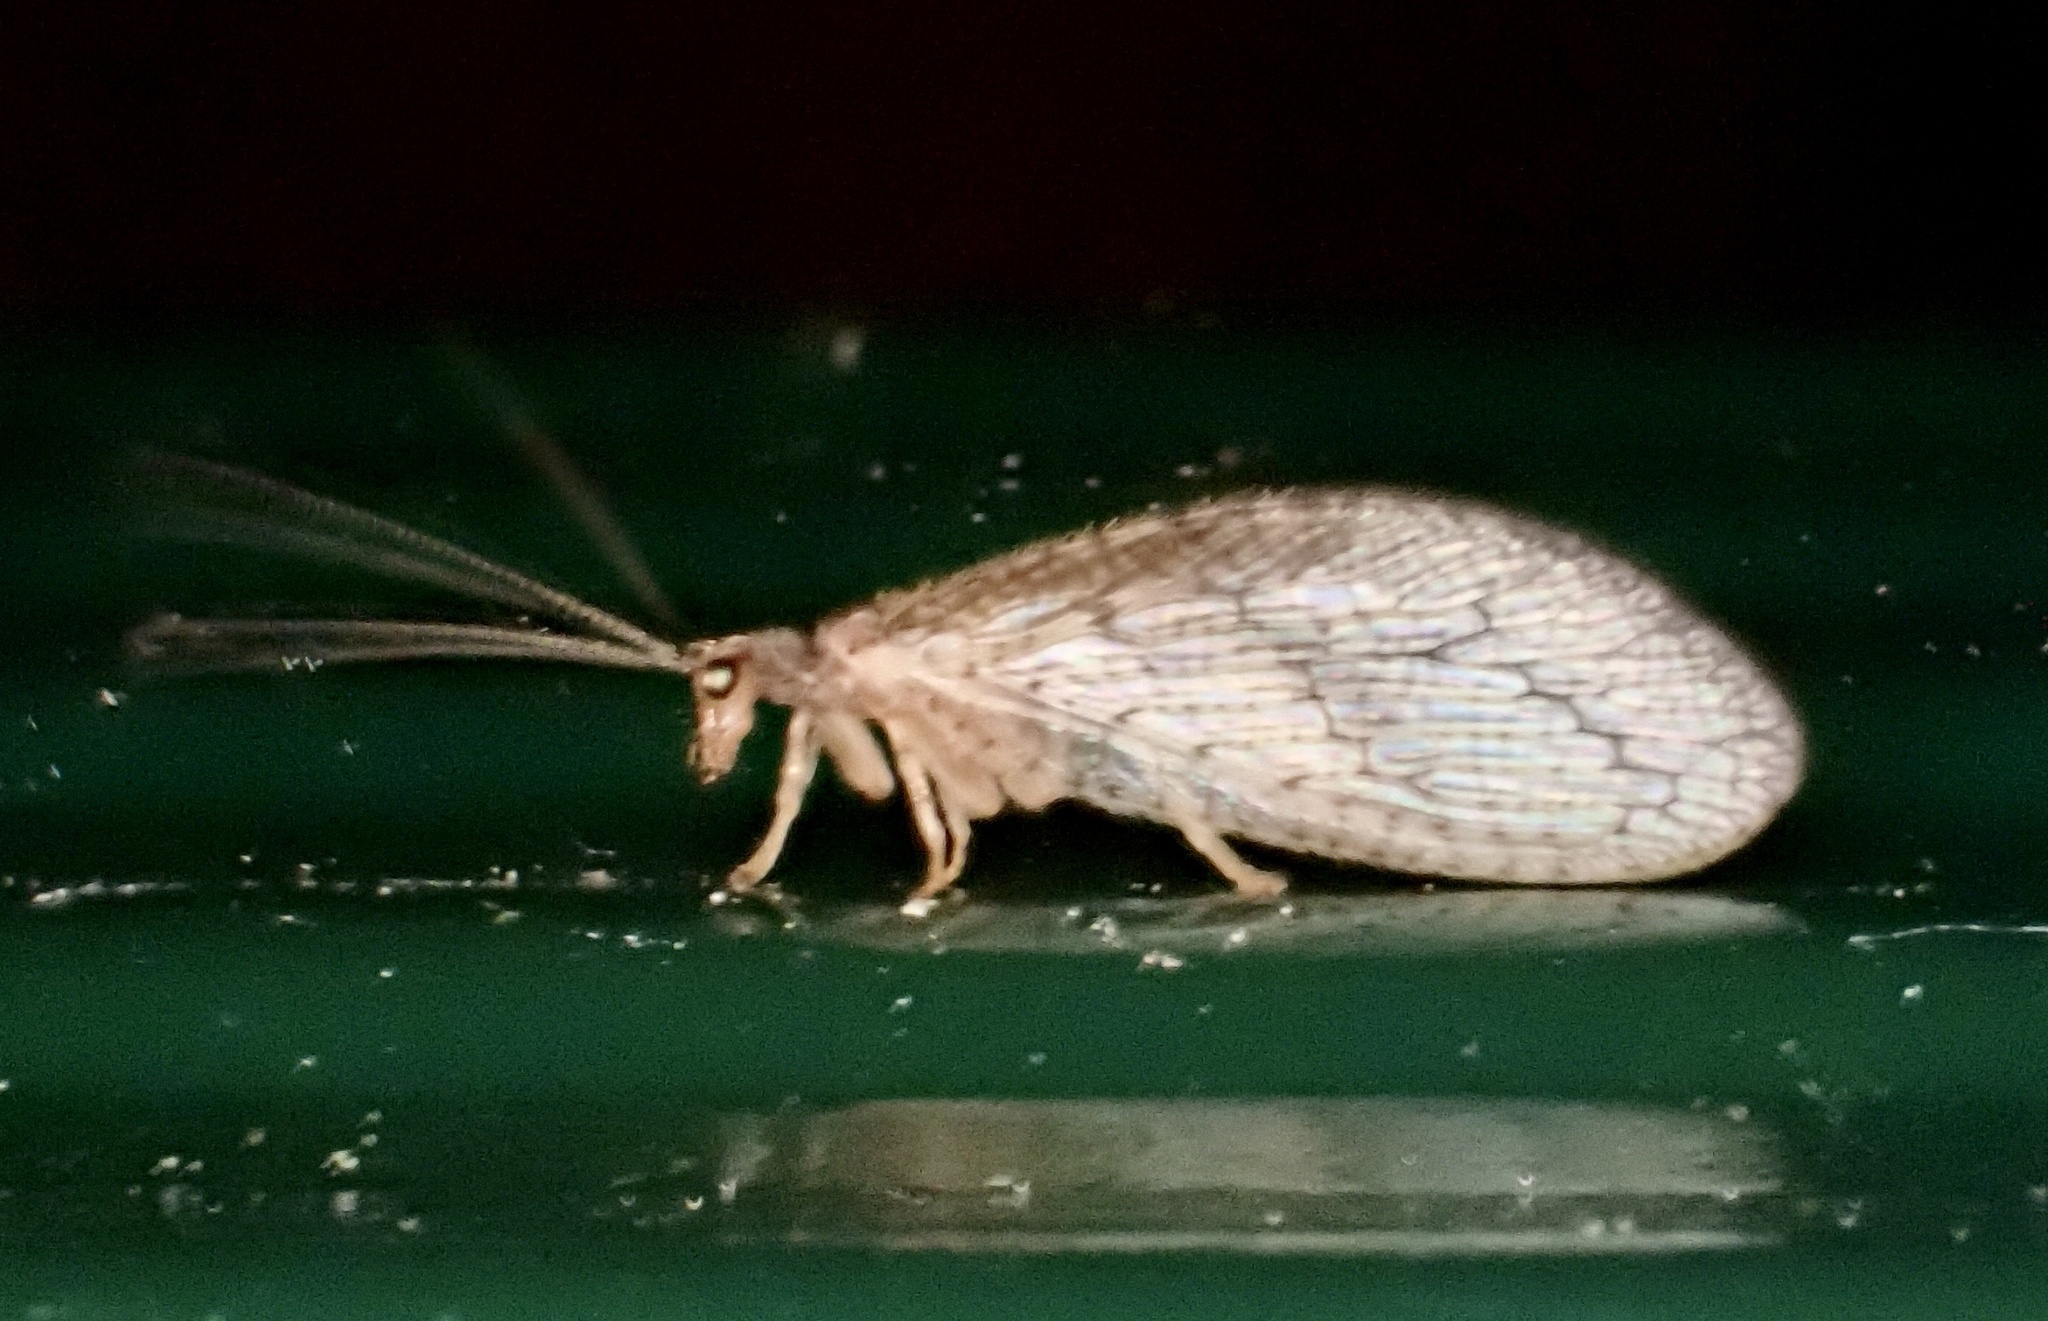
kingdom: Animalia
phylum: Arthropoda
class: Insecta
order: Neuroptera
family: Hemerobiidae
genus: Micromus
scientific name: Micromus posticus
